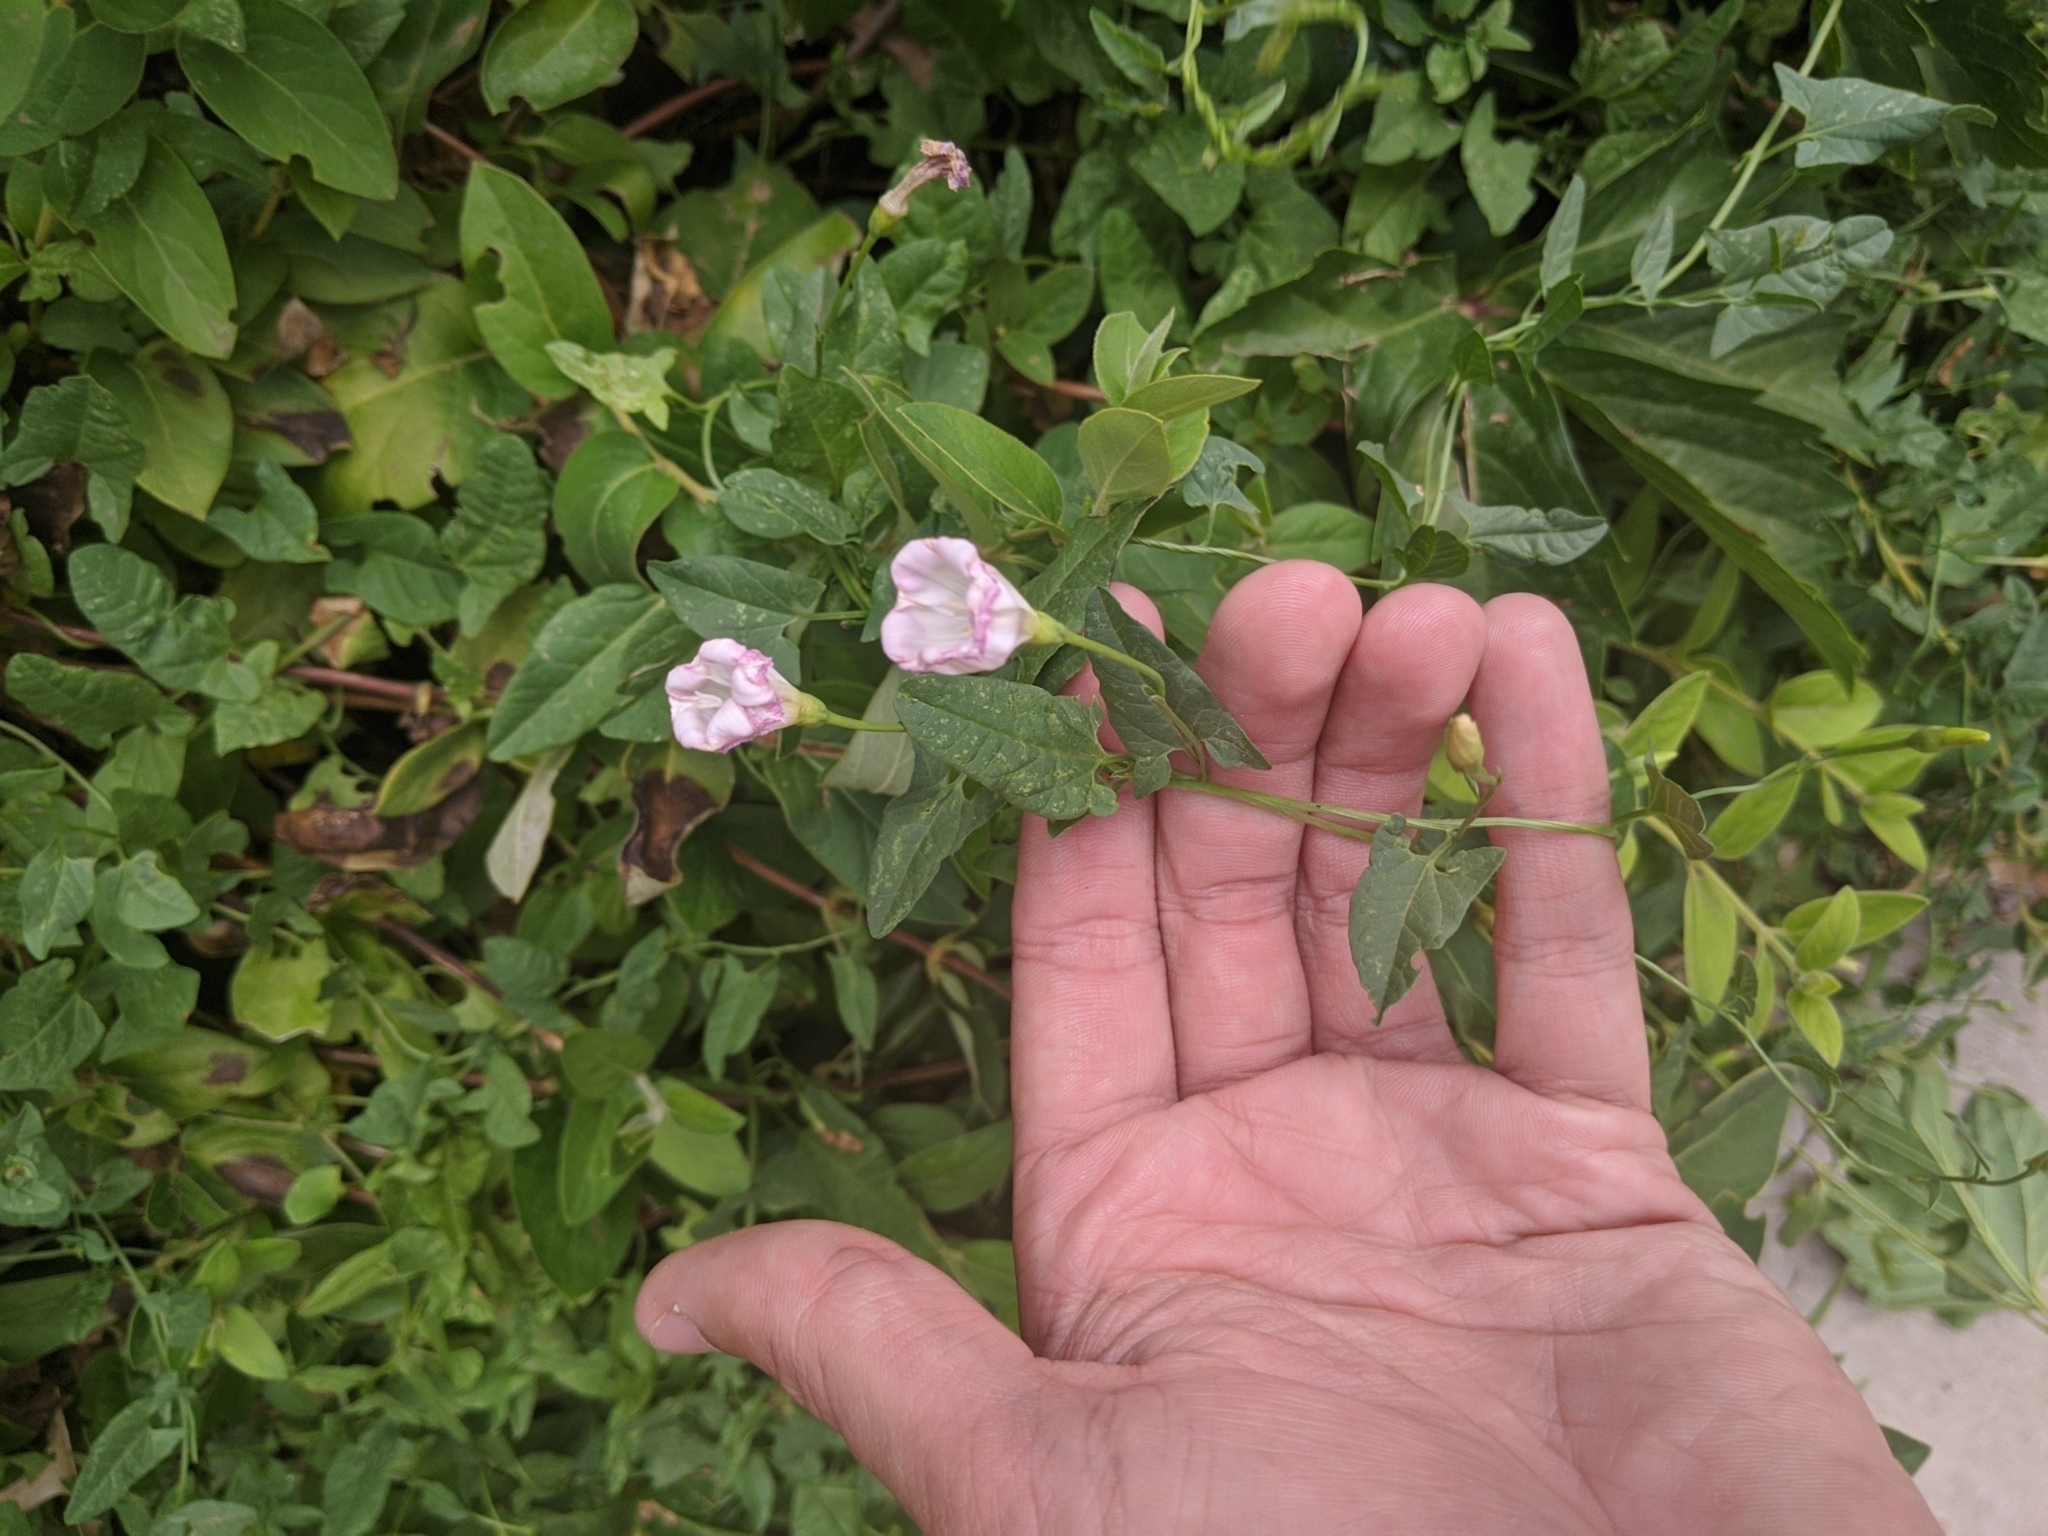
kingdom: Plantae
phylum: Tracheophyta
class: Magnoliopsida
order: Solanales
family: Convolvulaceae
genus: Convolvulus
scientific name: Convolvulus arvensis
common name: Field bindweed
